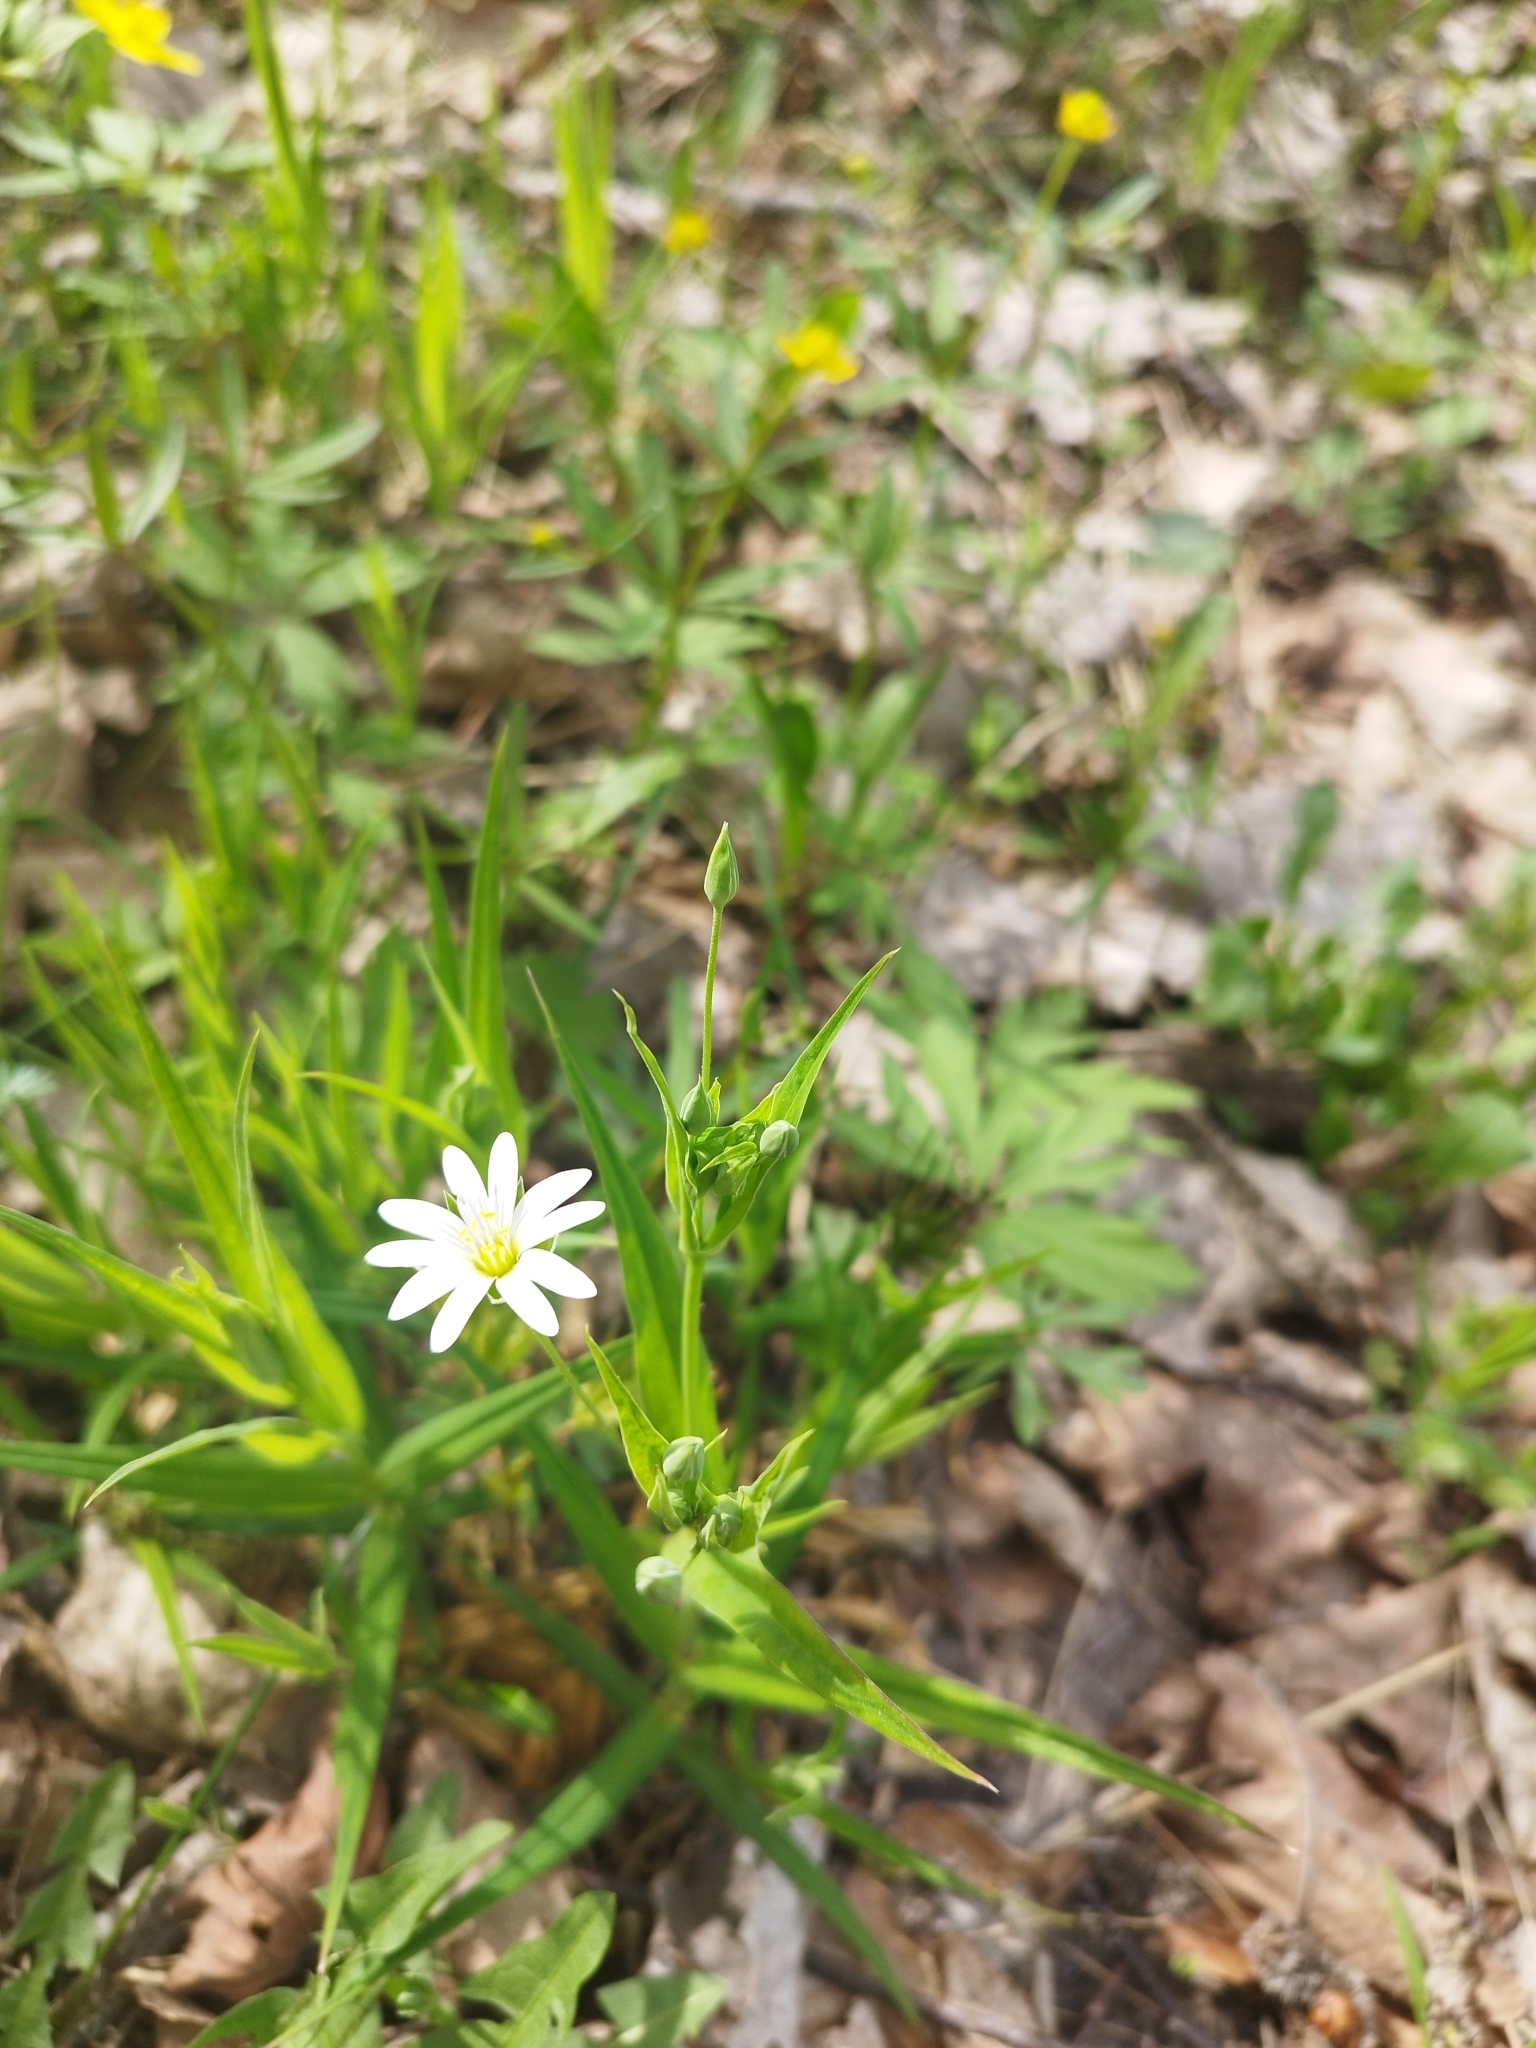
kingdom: Plantae
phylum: Tracheophyta
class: Magnoliopsida
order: Caryophyllales
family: Caryophyllaceae
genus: Rabelera
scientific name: Rabelera holostea
